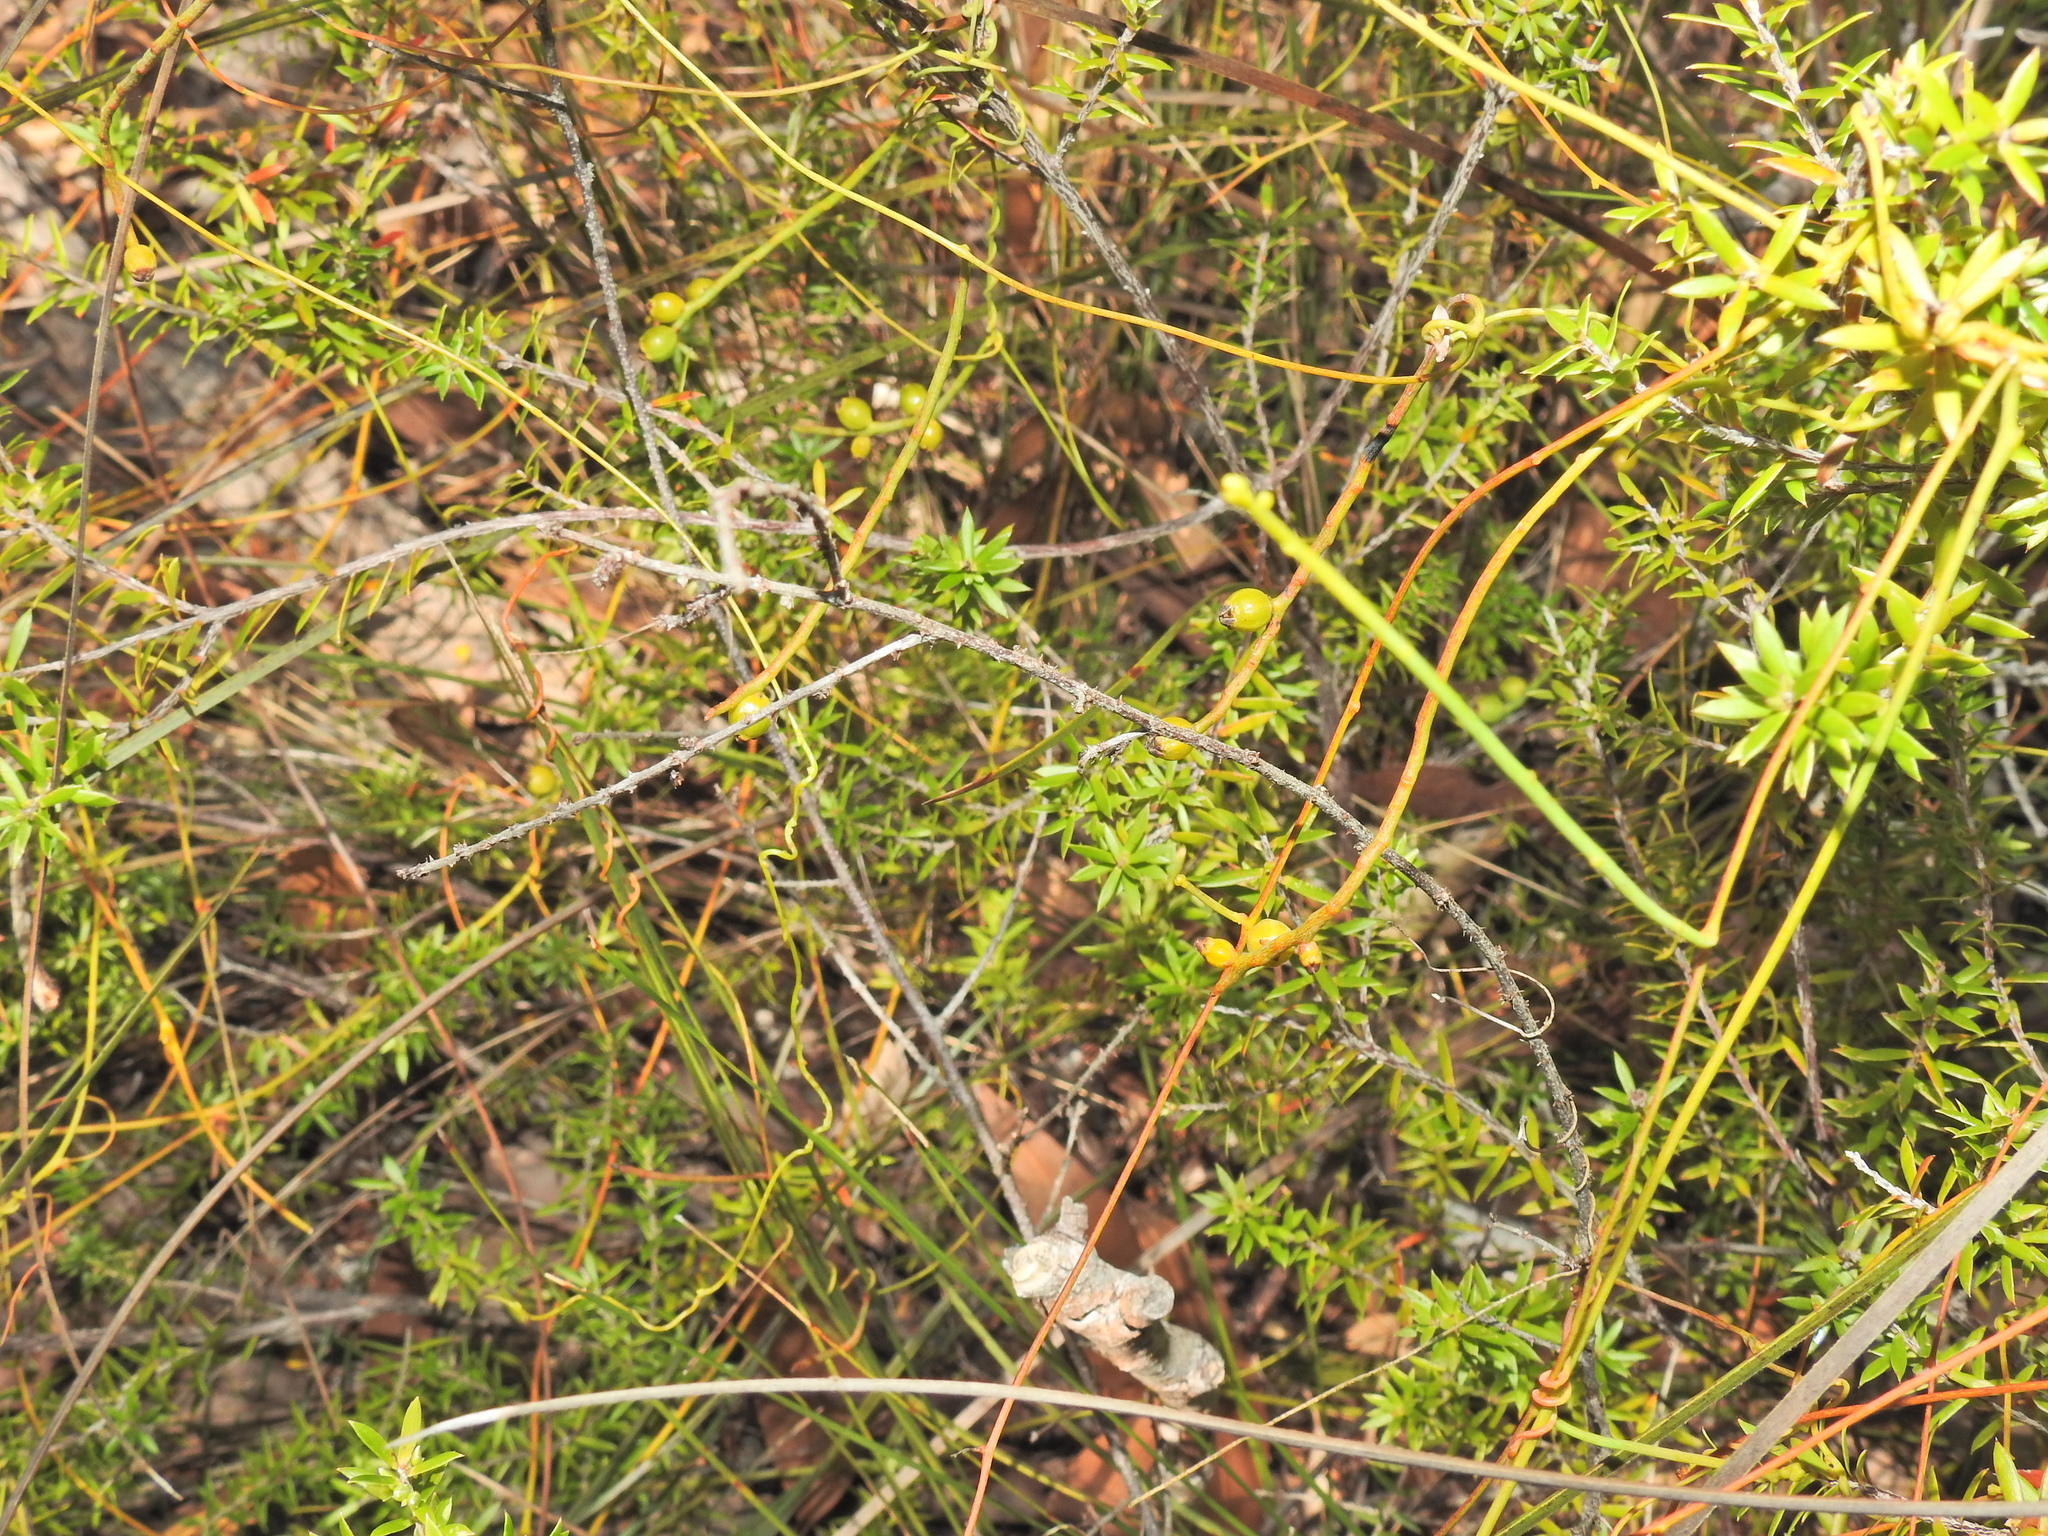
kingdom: Plantae
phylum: Tracheophyta
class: Magnoliopsida
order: Laurales
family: Lauraceae
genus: Cassytha
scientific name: Cassytha filiformis
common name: Dodder-laurel
